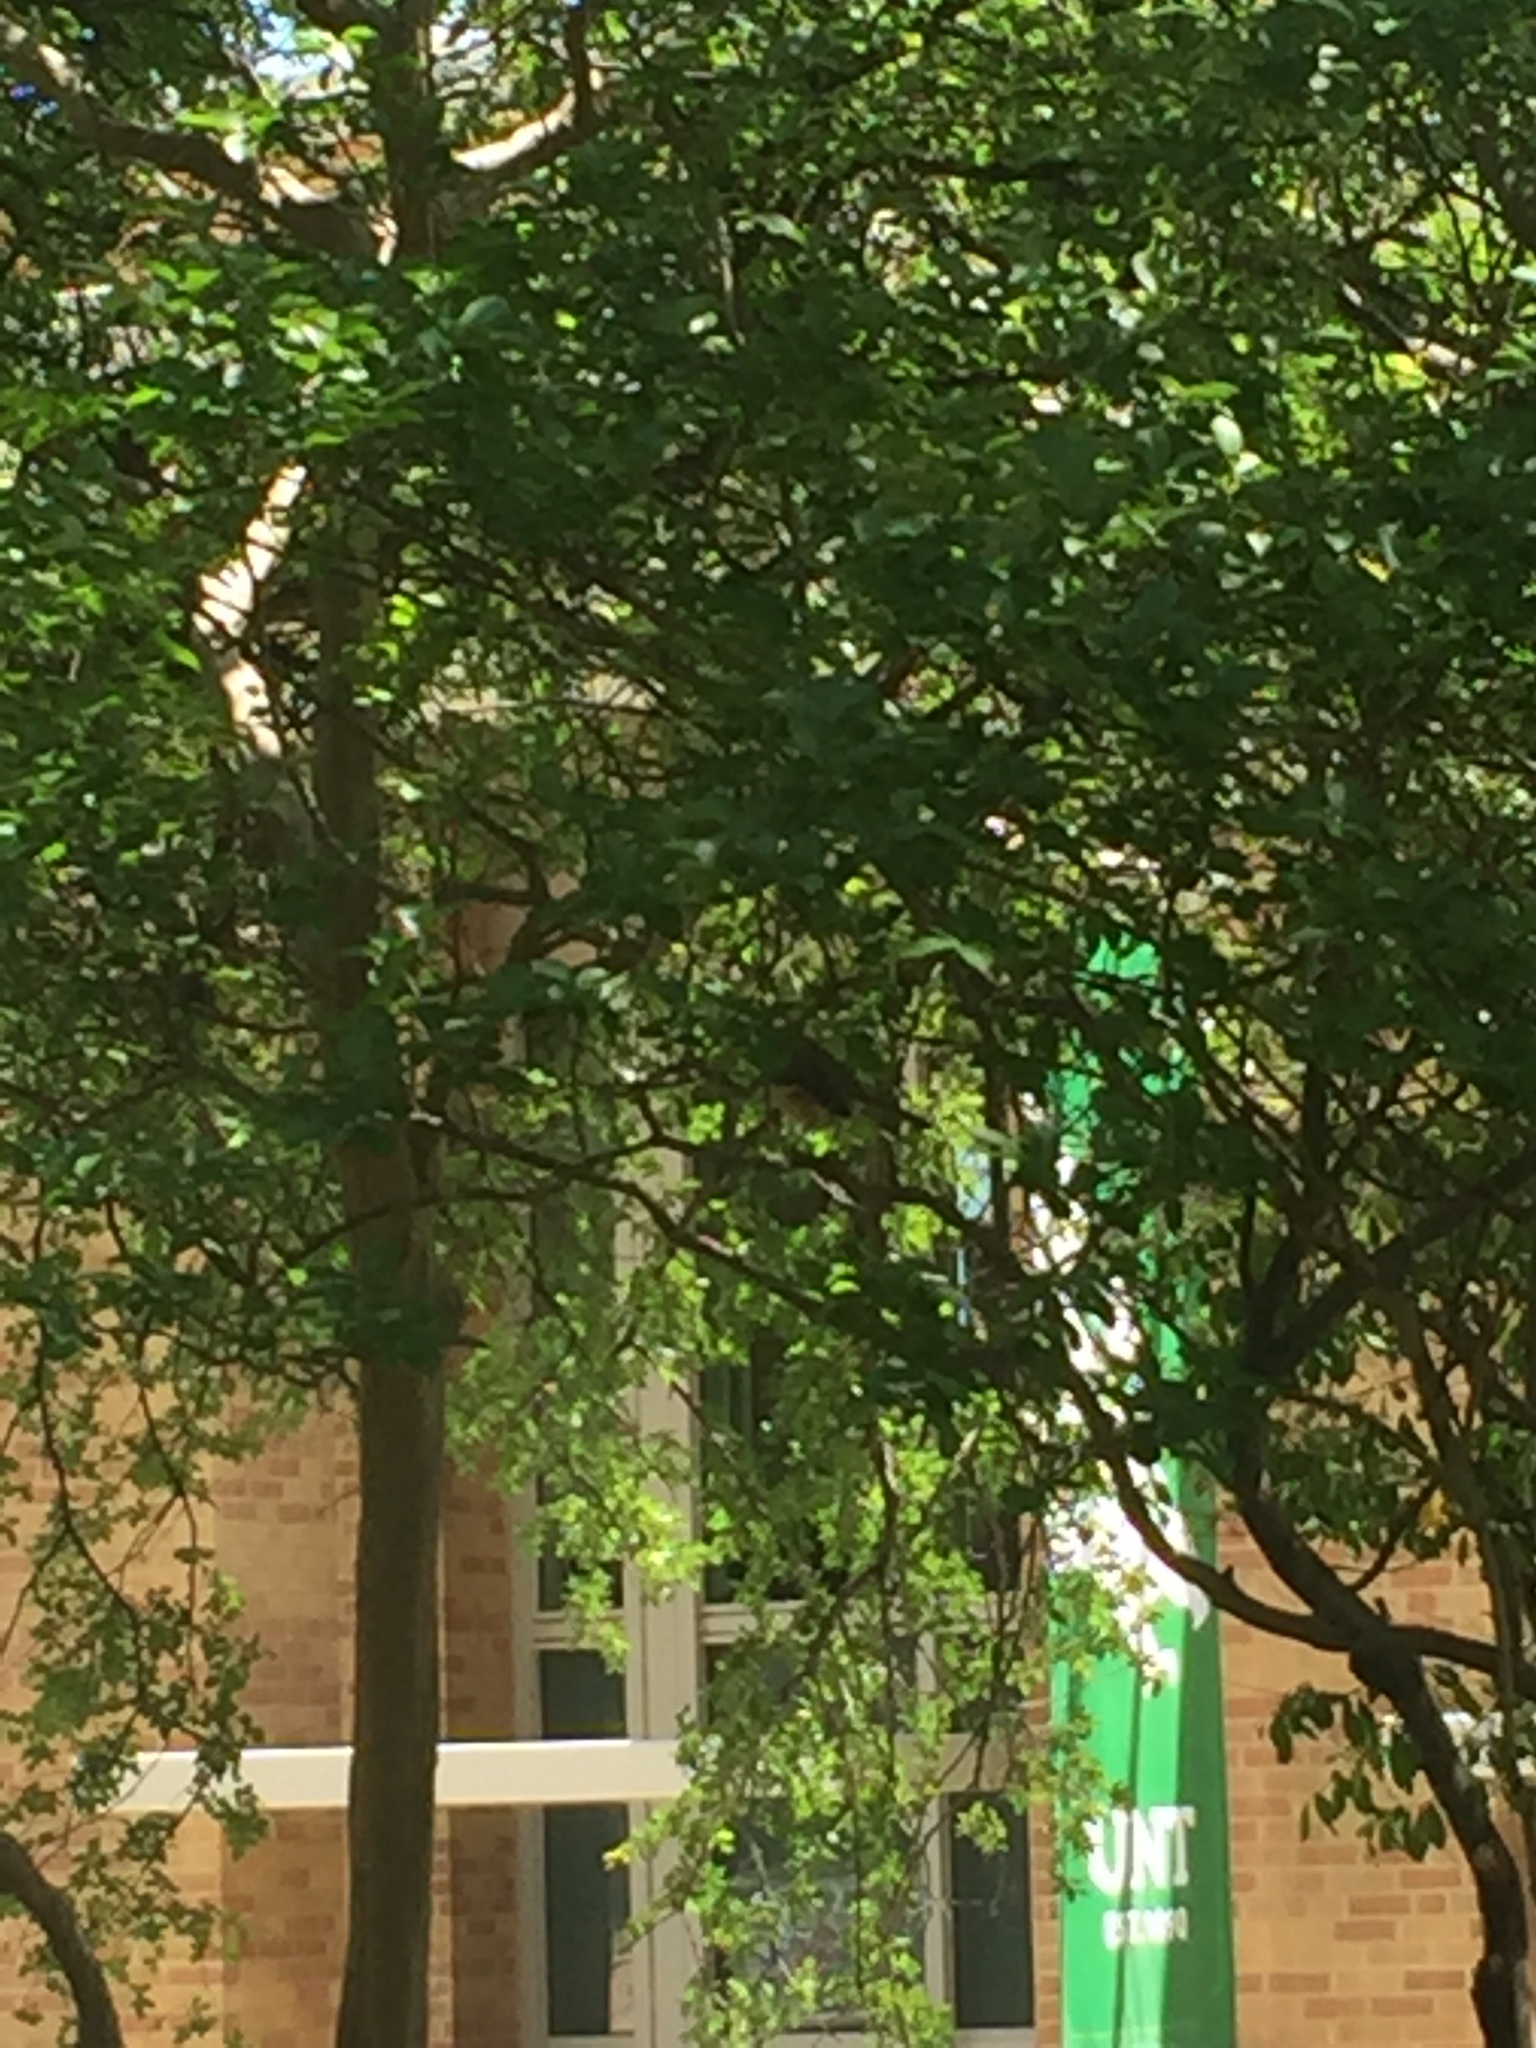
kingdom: Animalia
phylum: Chordata
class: Aves
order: Passeriformes
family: Mimidae
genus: Mimus
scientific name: Mimus polyglottos
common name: Northern mockingbird
